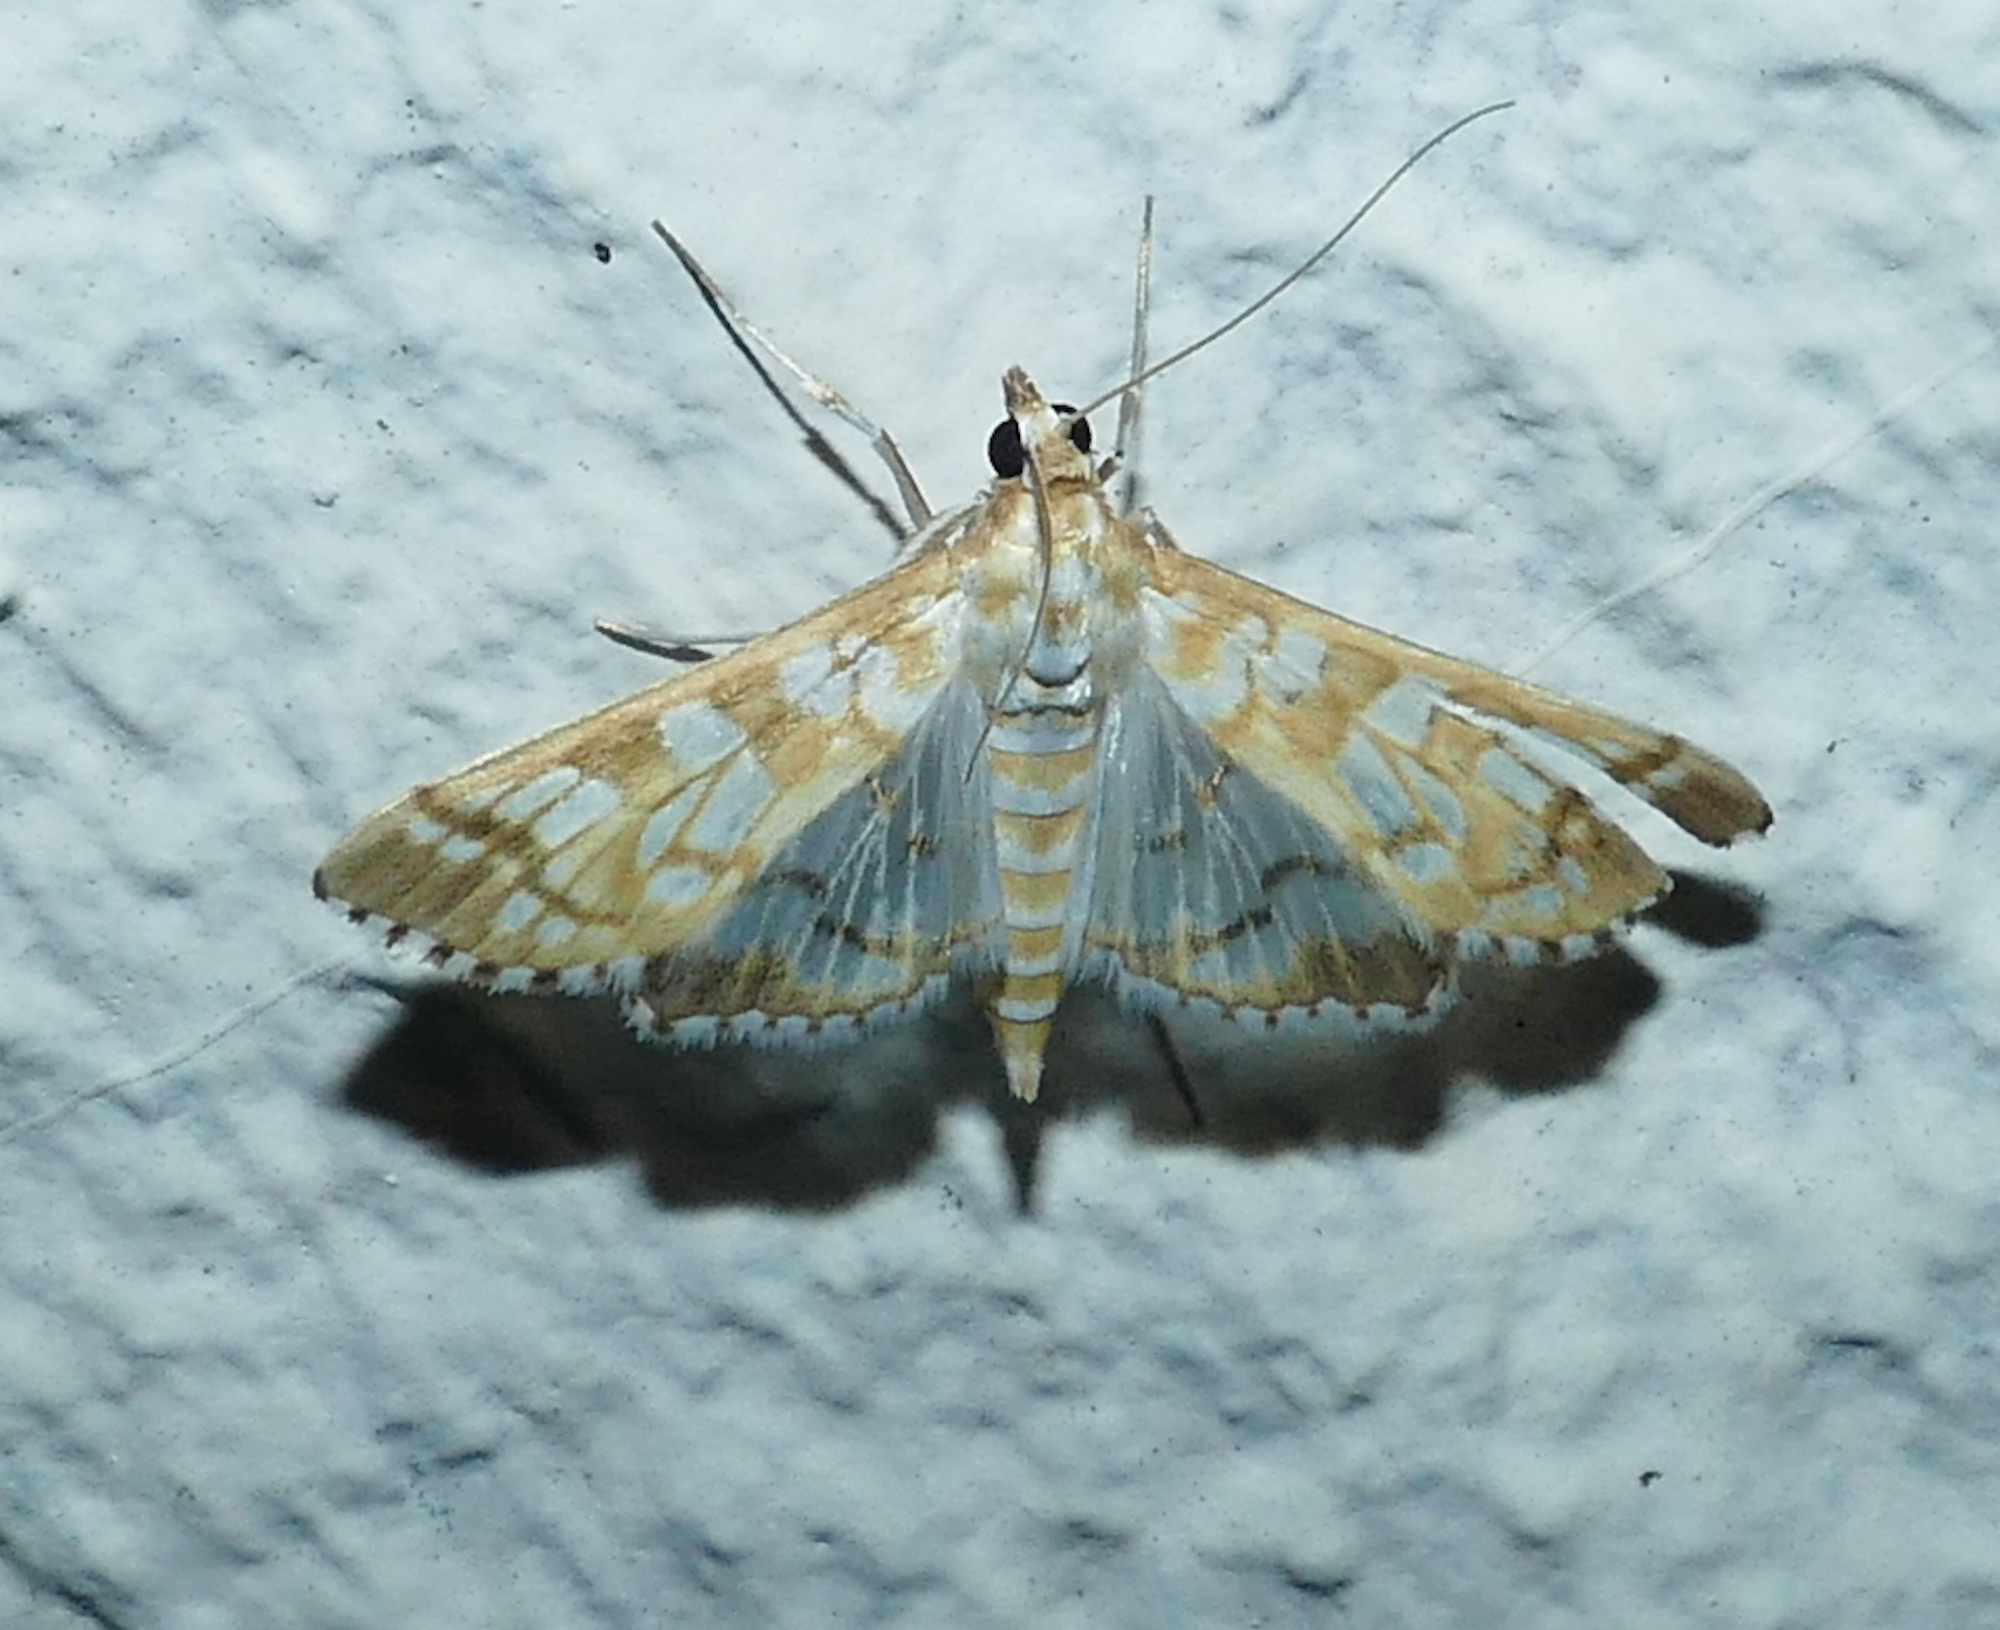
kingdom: Animalia
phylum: Arthropoda
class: Insecta
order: Lepidoptera
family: Crambidae
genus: Epipagis
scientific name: Epipagis fenestralis
